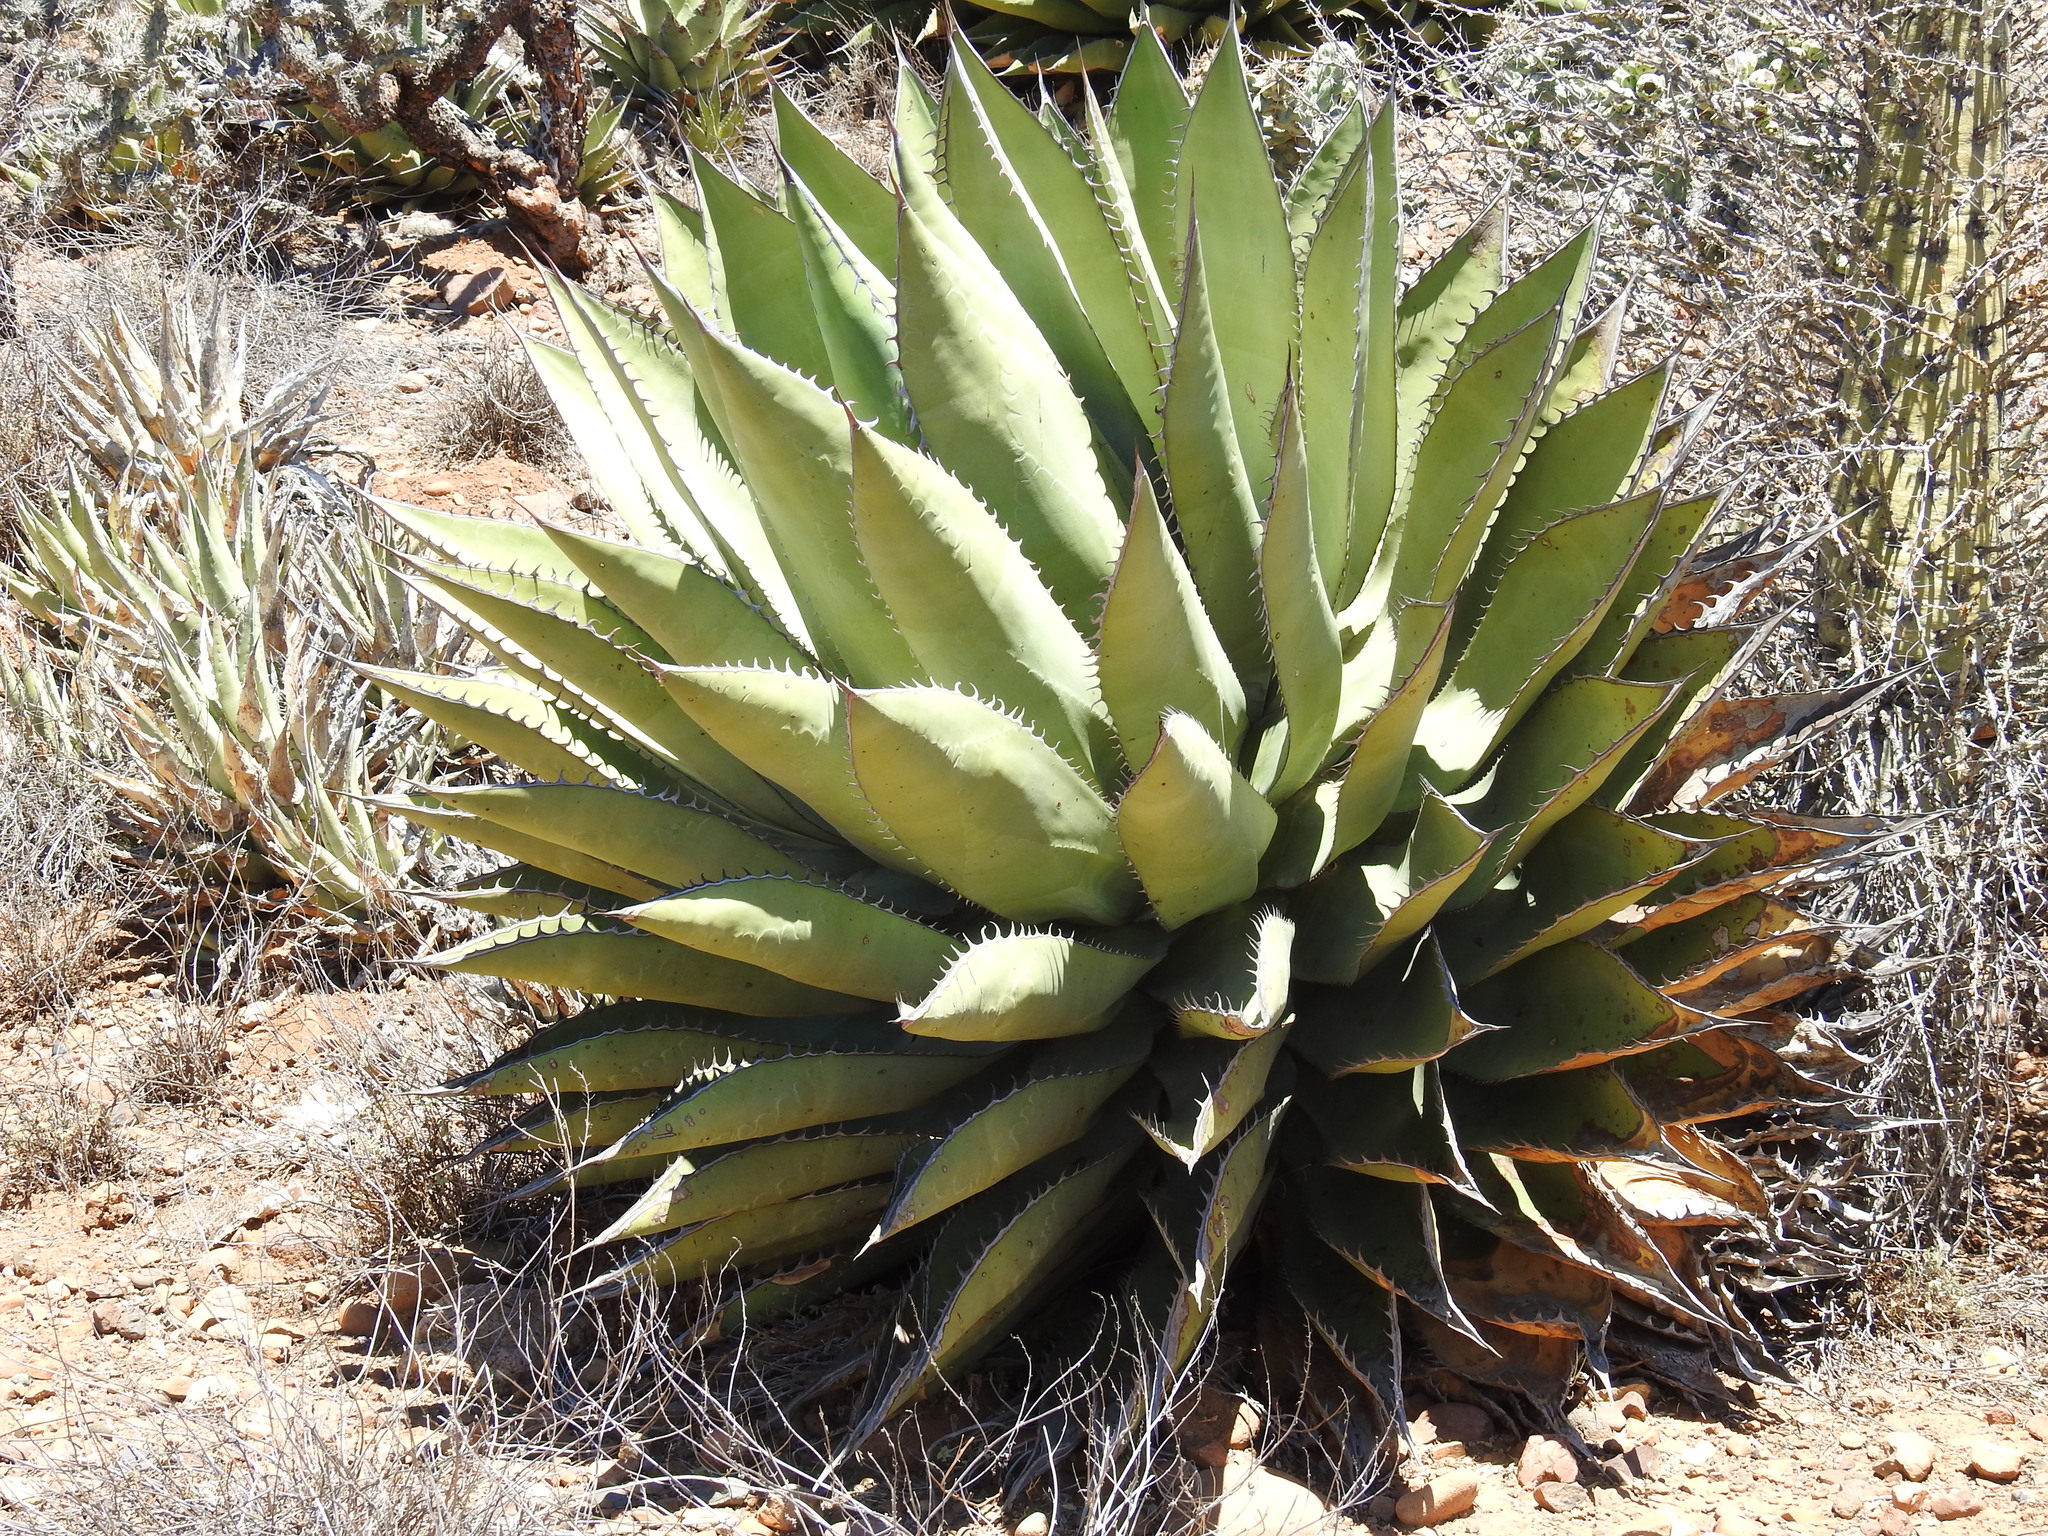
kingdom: Plantae
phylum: Tracheophyta
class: Liliopsida
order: Asparagales
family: Asparagaceae
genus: Agave
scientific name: Agave shawii
